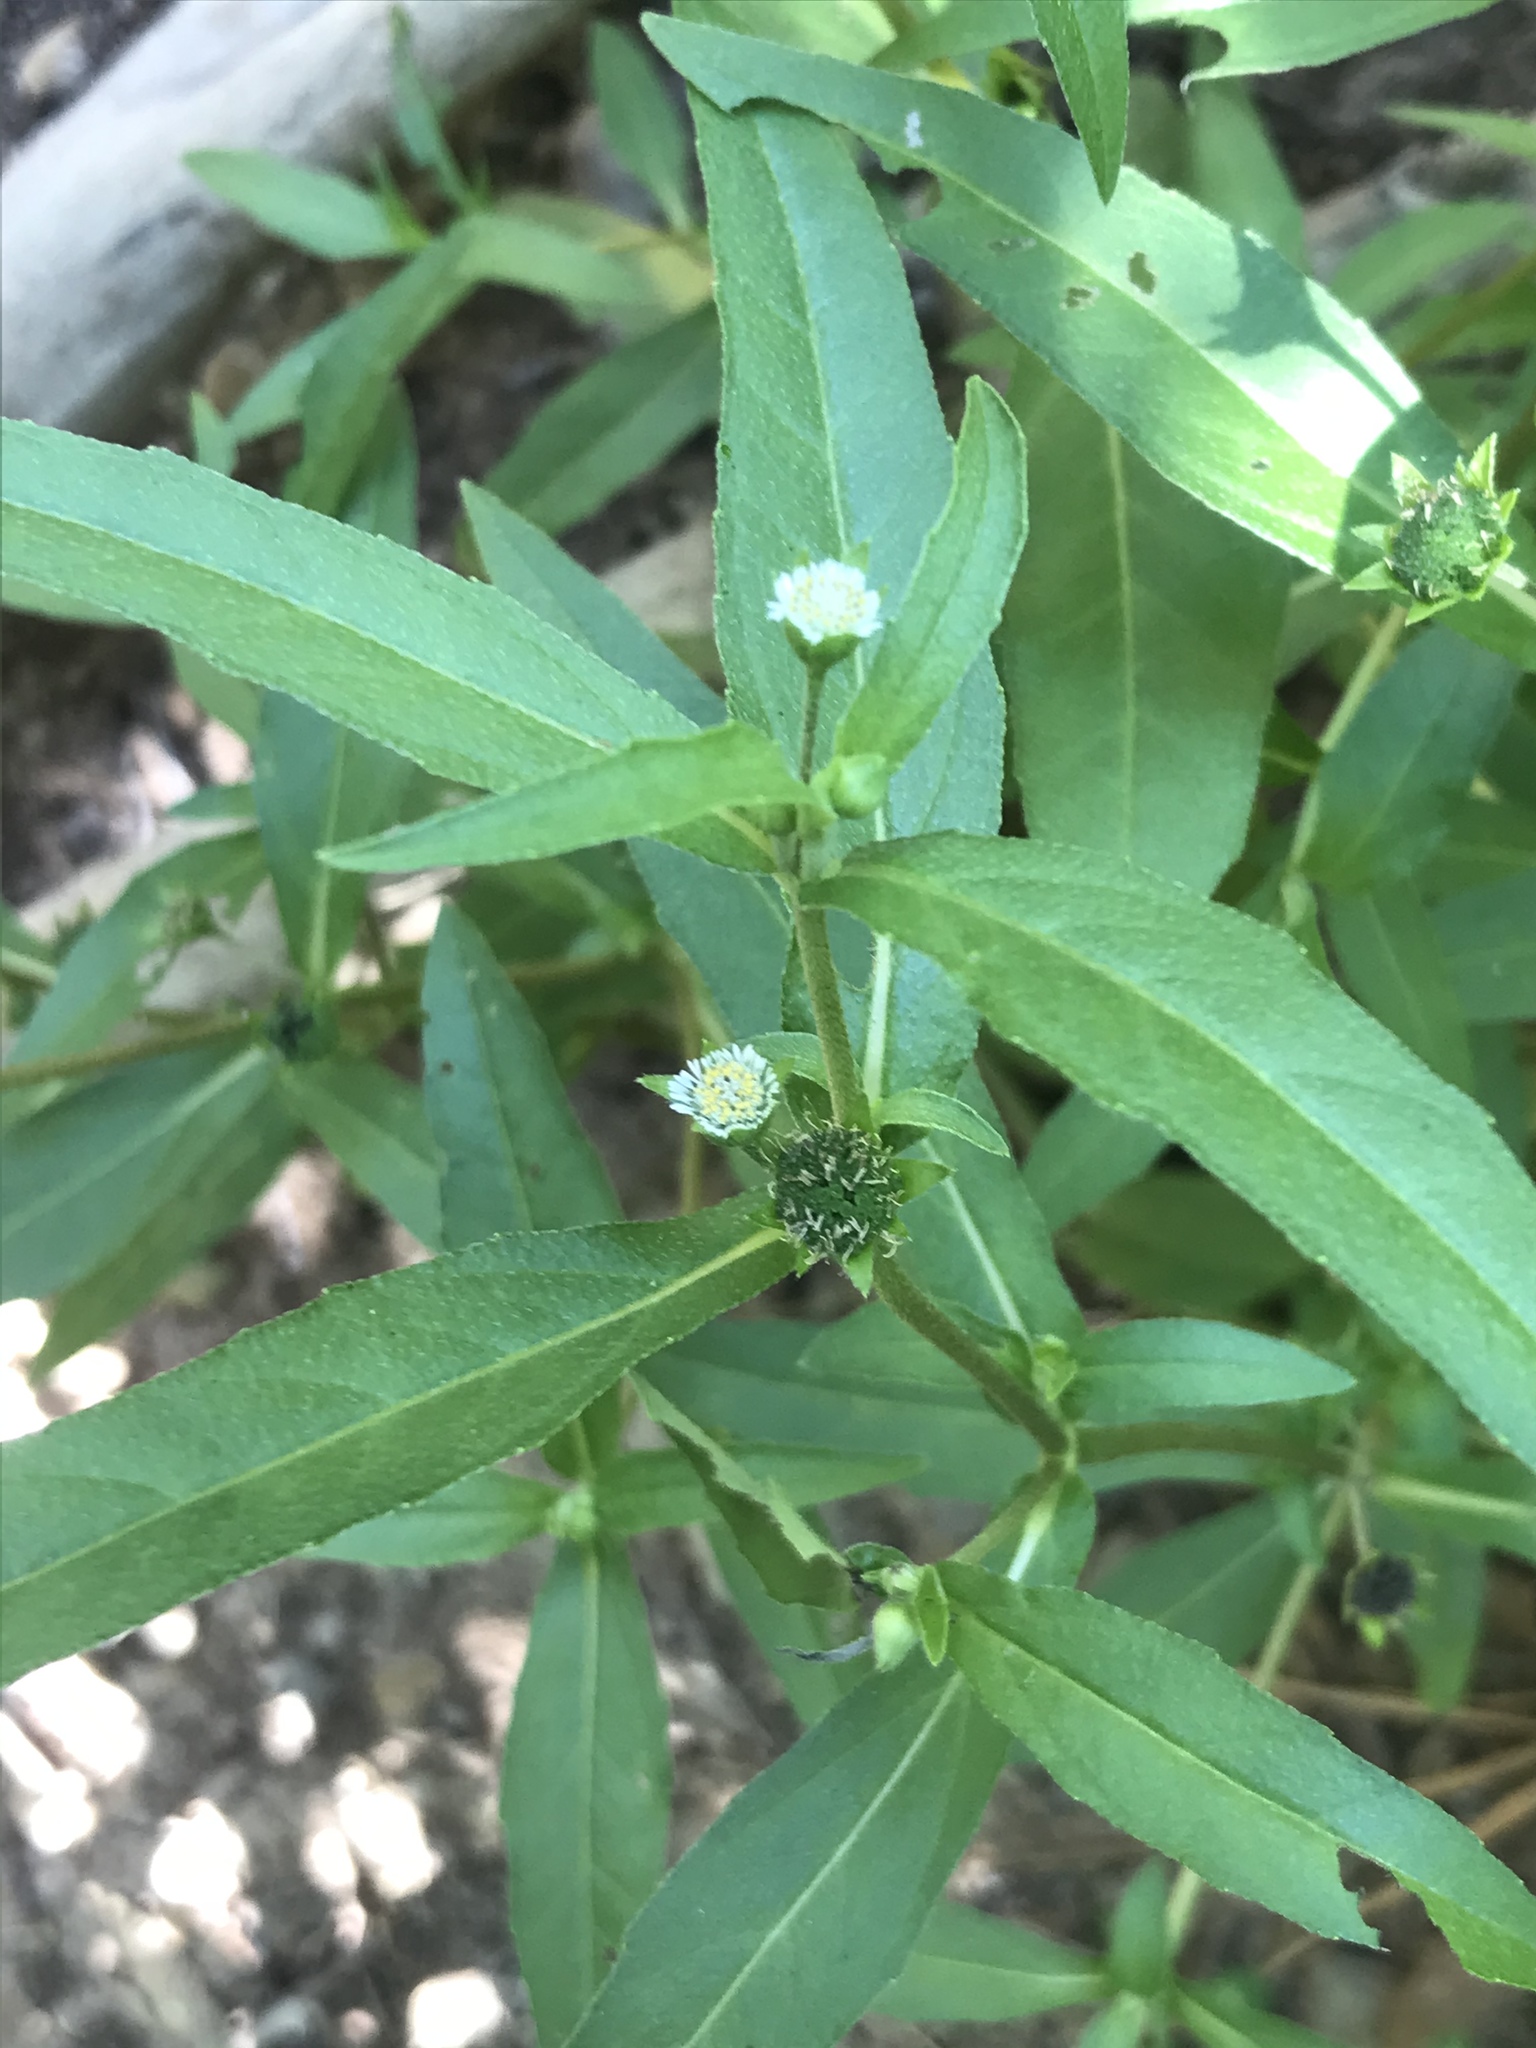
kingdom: Plantae
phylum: Tracheophyta
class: Magnoliopsida
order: Asterales
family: Asteraceae
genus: Eclipta
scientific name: Eclipta prostrata
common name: False daisy
